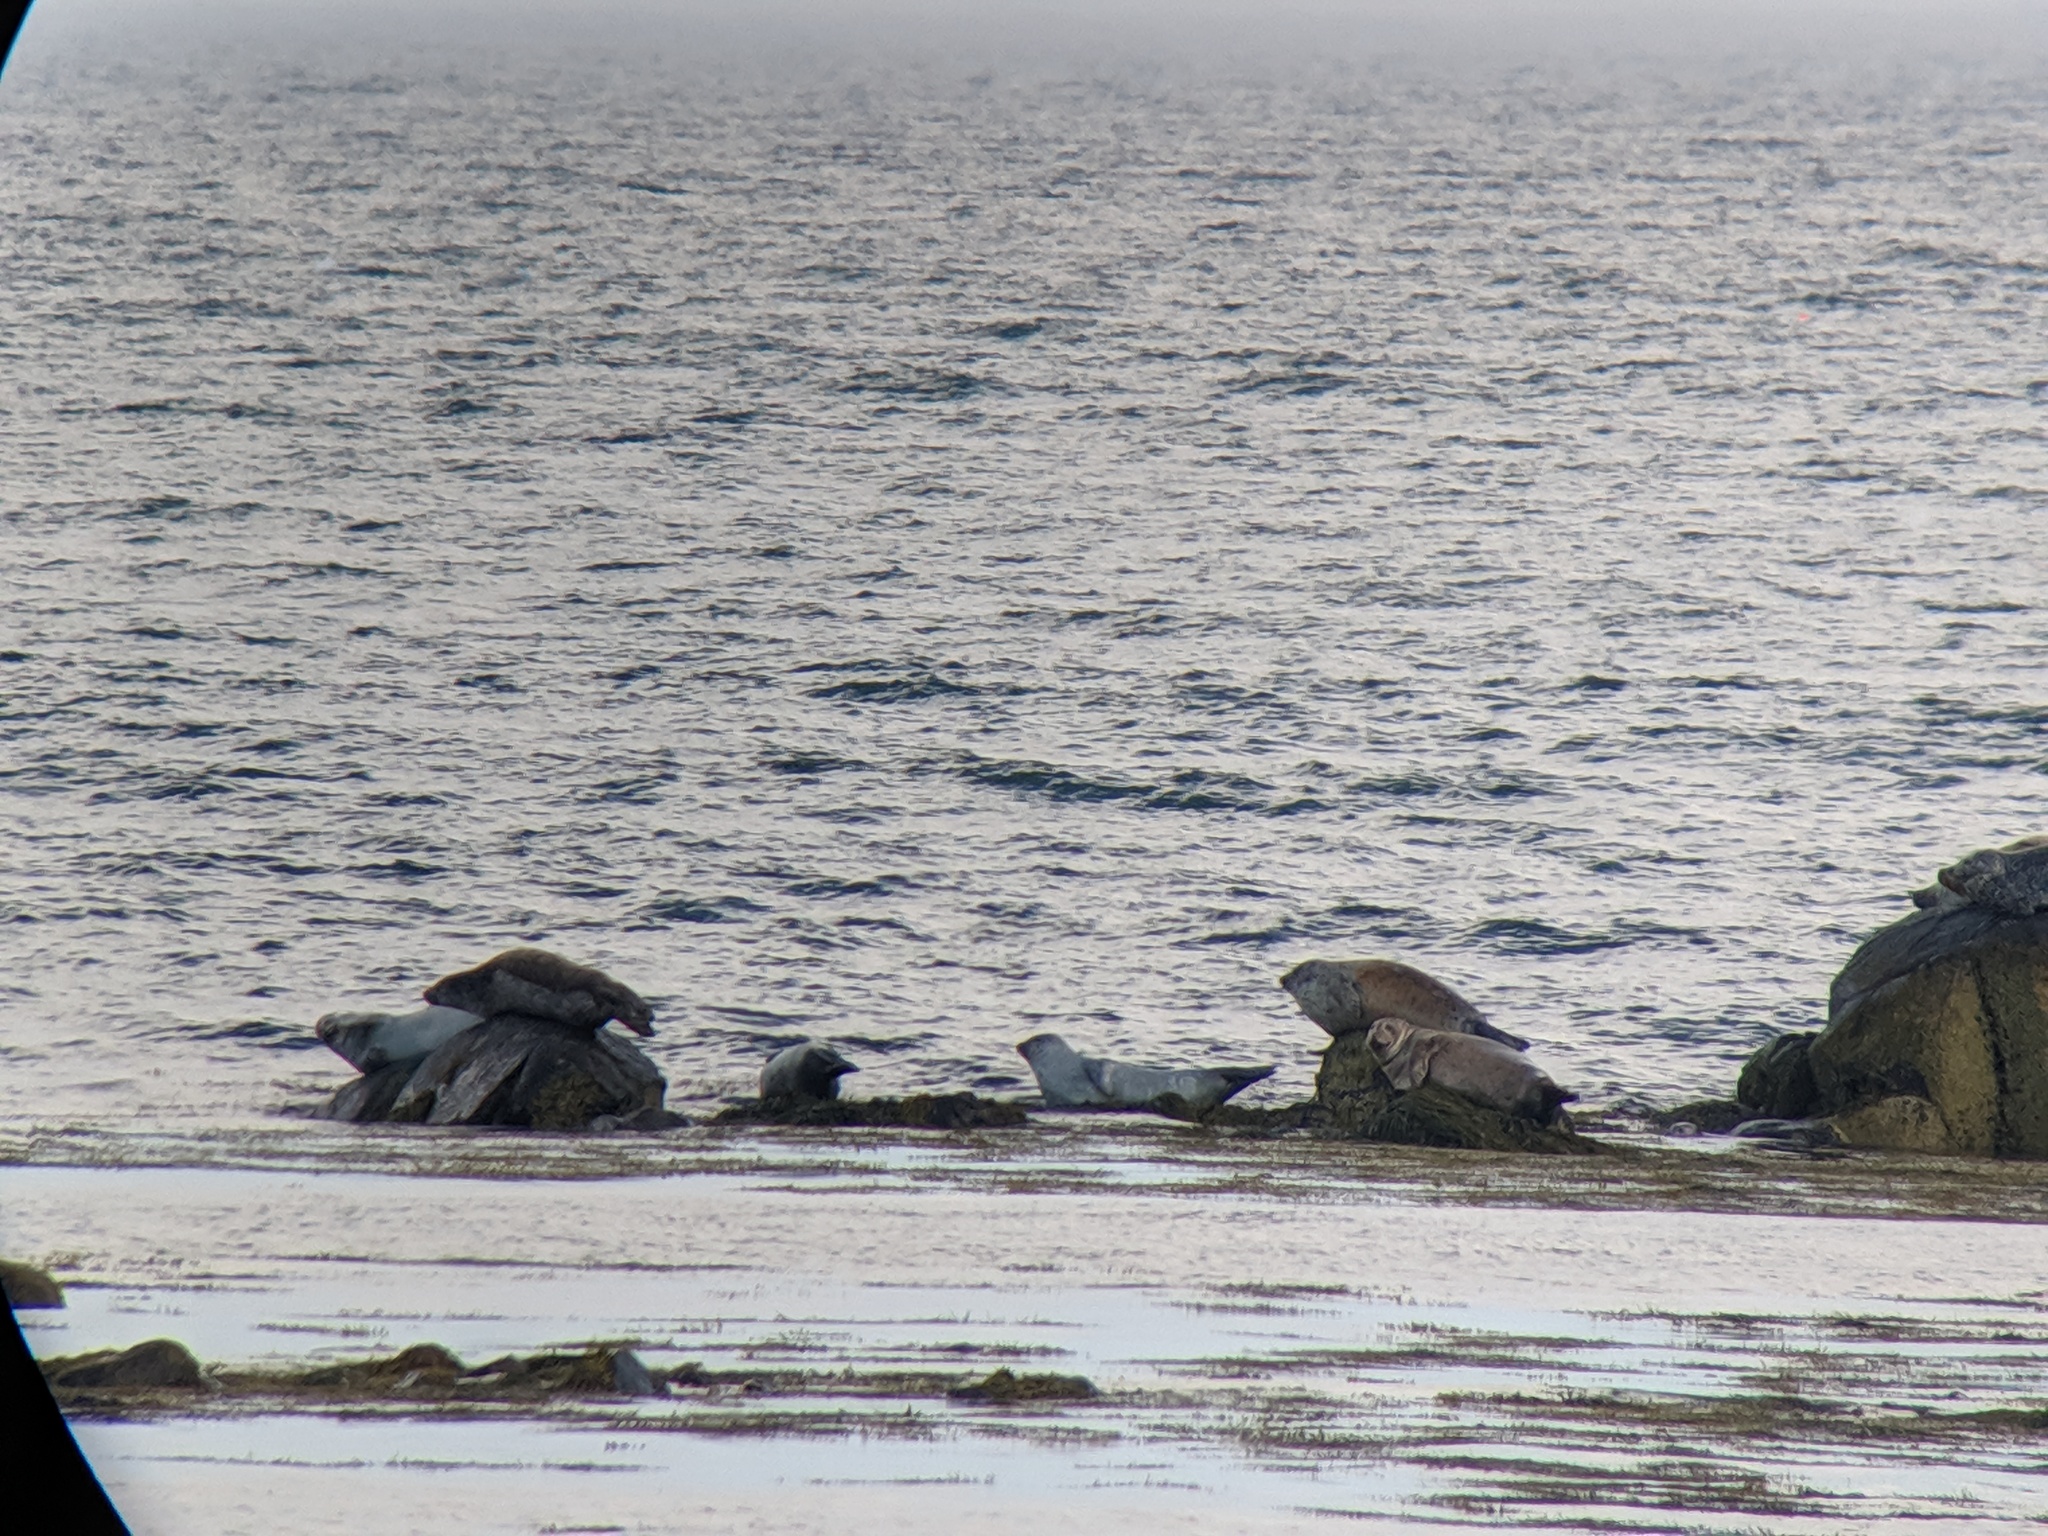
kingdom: Animalia
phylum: Chordata
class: Mammalia
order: Carnivora
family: Phocidae
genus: Phoca
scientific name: Phoca vitulina
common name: Harbor seal
